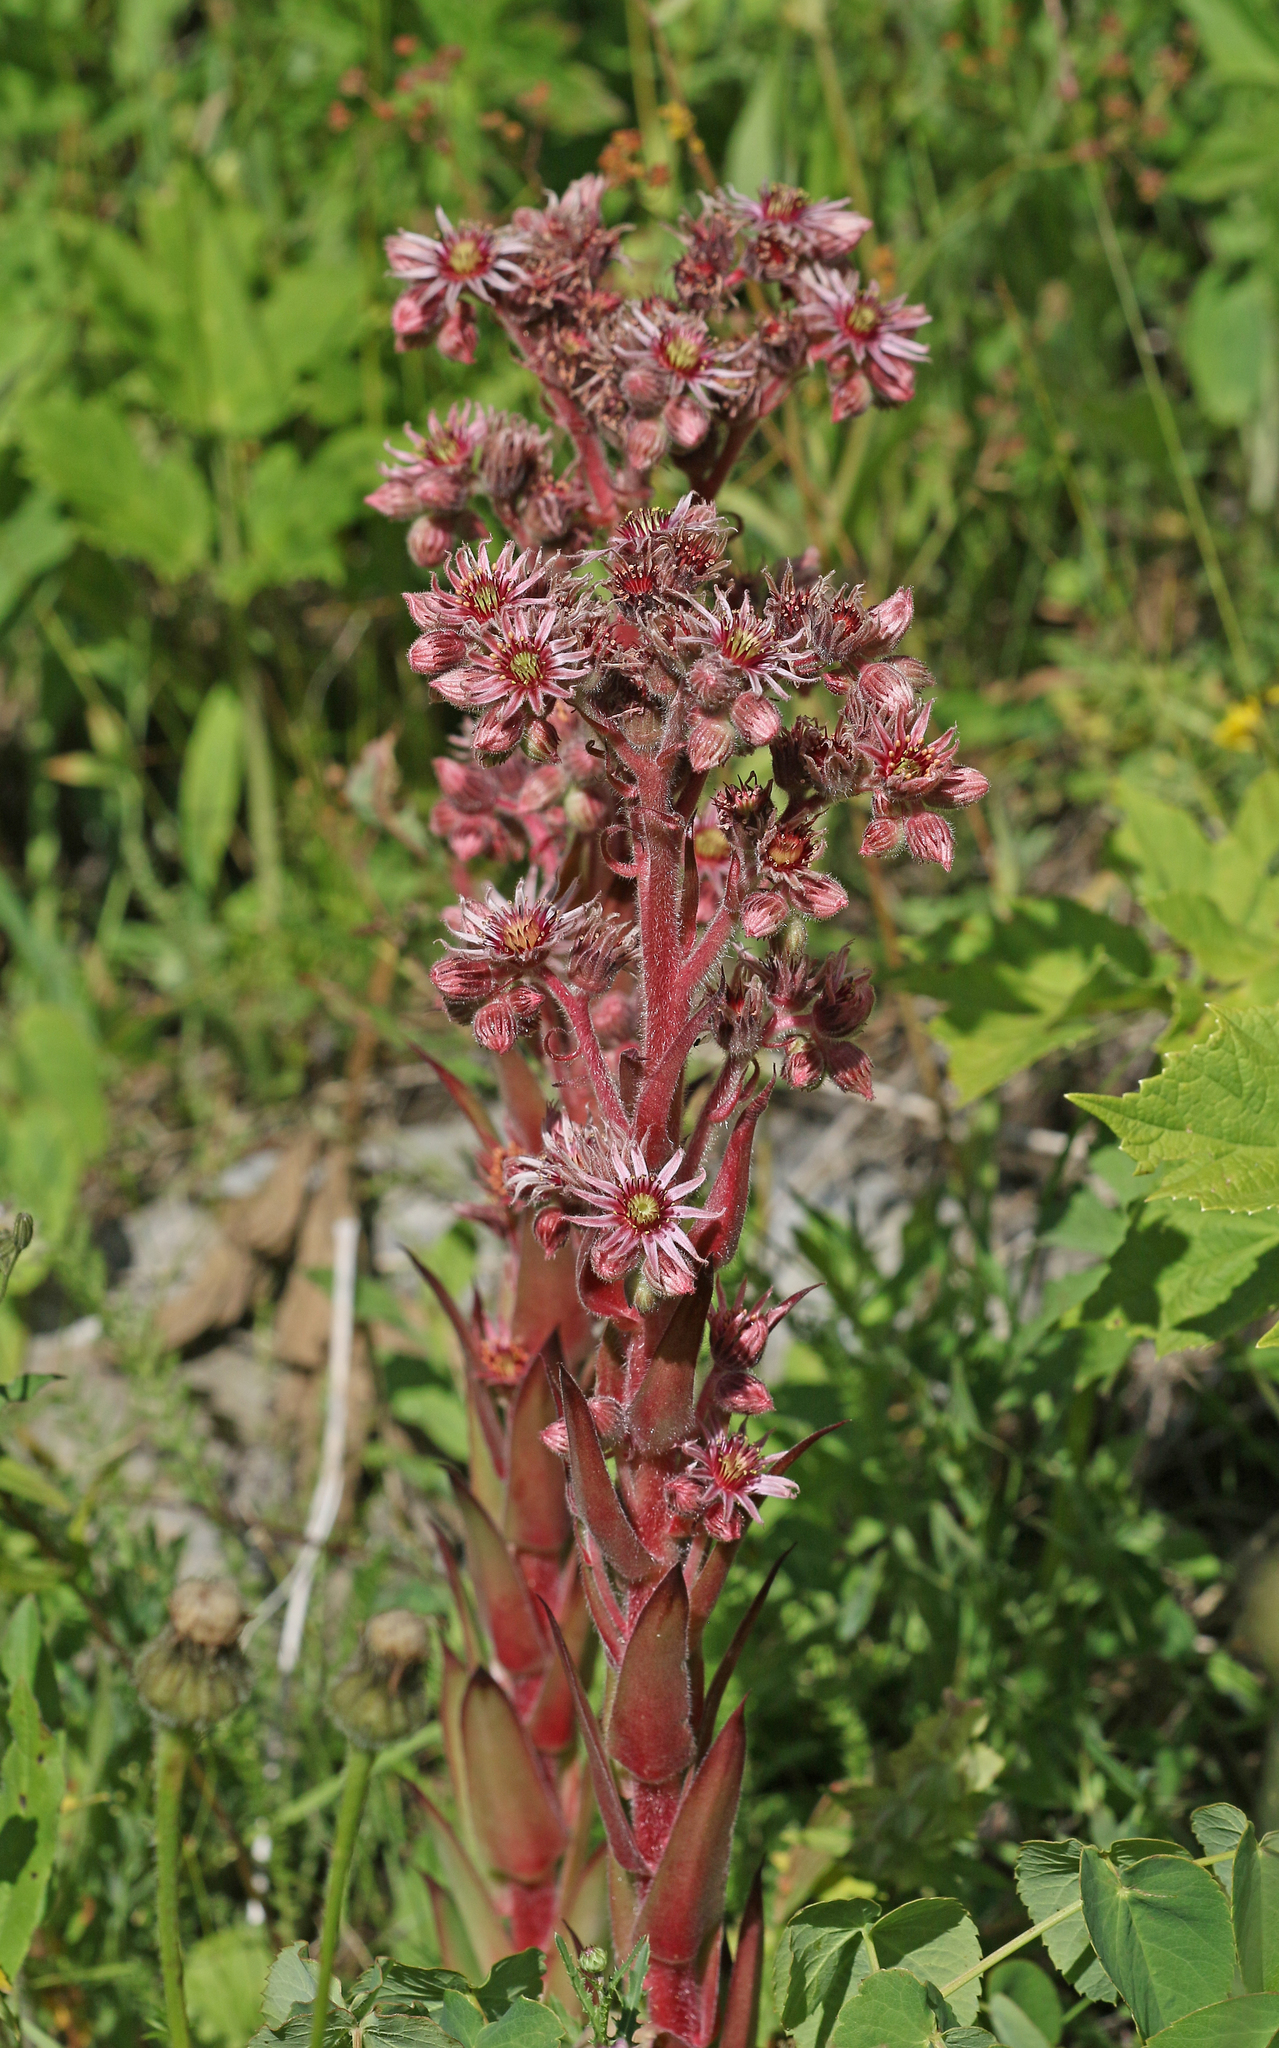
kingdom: Plantae
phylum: Tracheophyta
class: Magnoliopsida
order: Saxifragales
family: Crassulaceae
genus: Sempervivum
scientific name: Sempervivum tectorum
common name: House-leek
